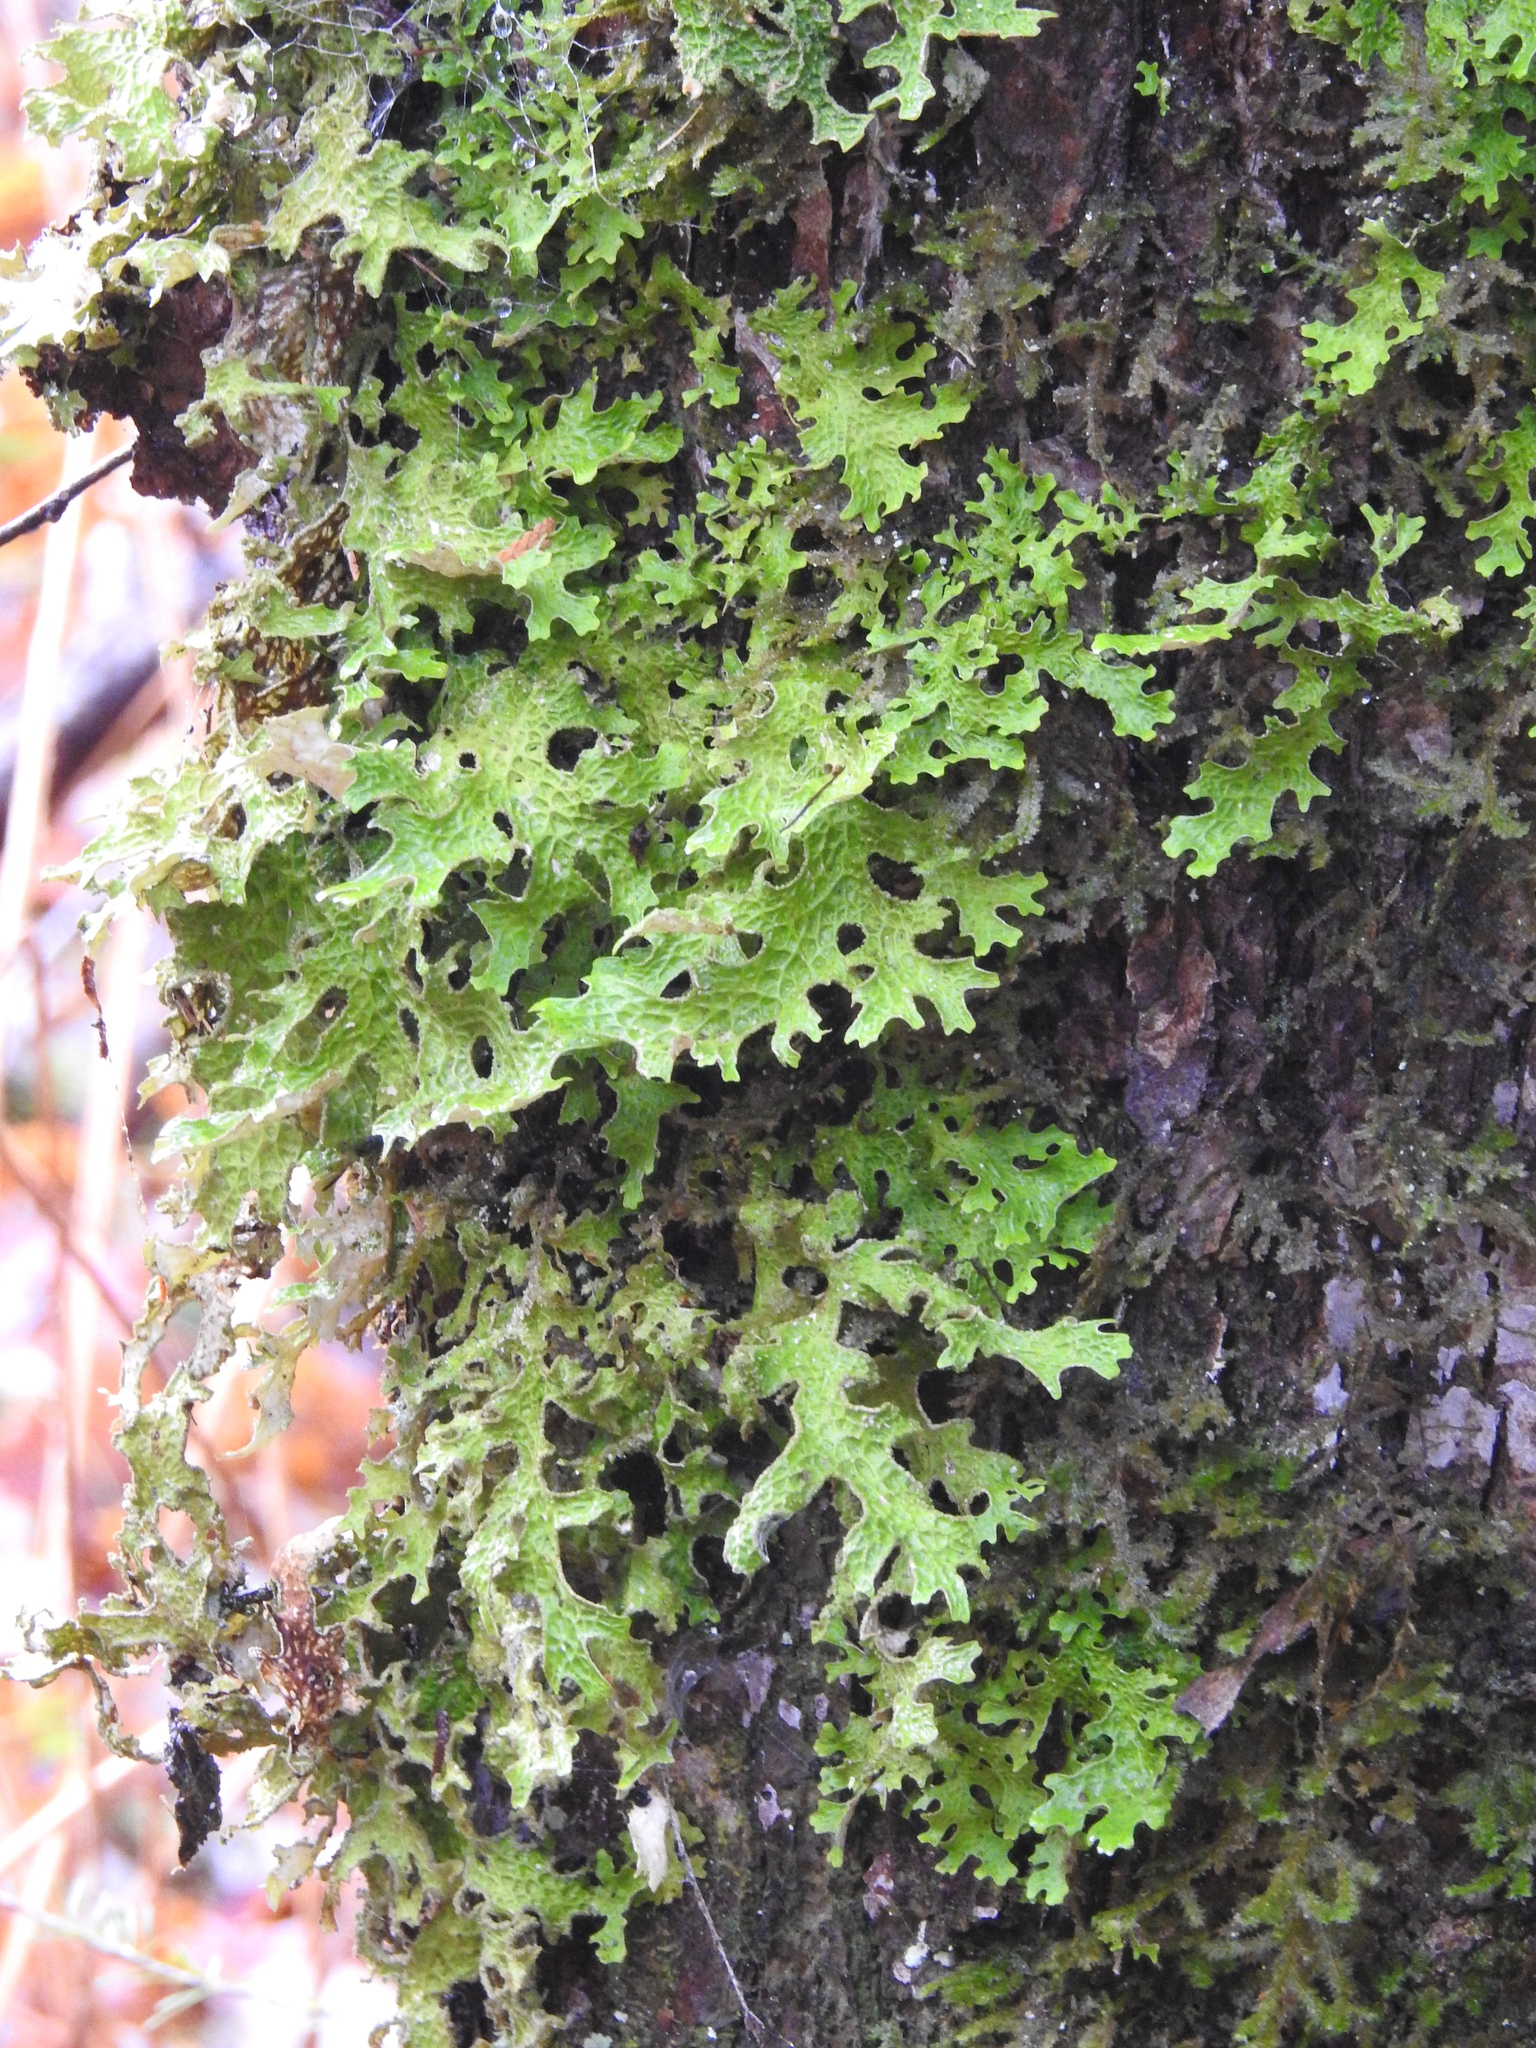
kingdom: Fungi
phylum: Ascomycota
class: Lecanoromycetes
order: Peltigerales
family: Lobariaceae
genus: Lobaria
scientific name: Lobaria pulmonaria
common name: Lungwort
